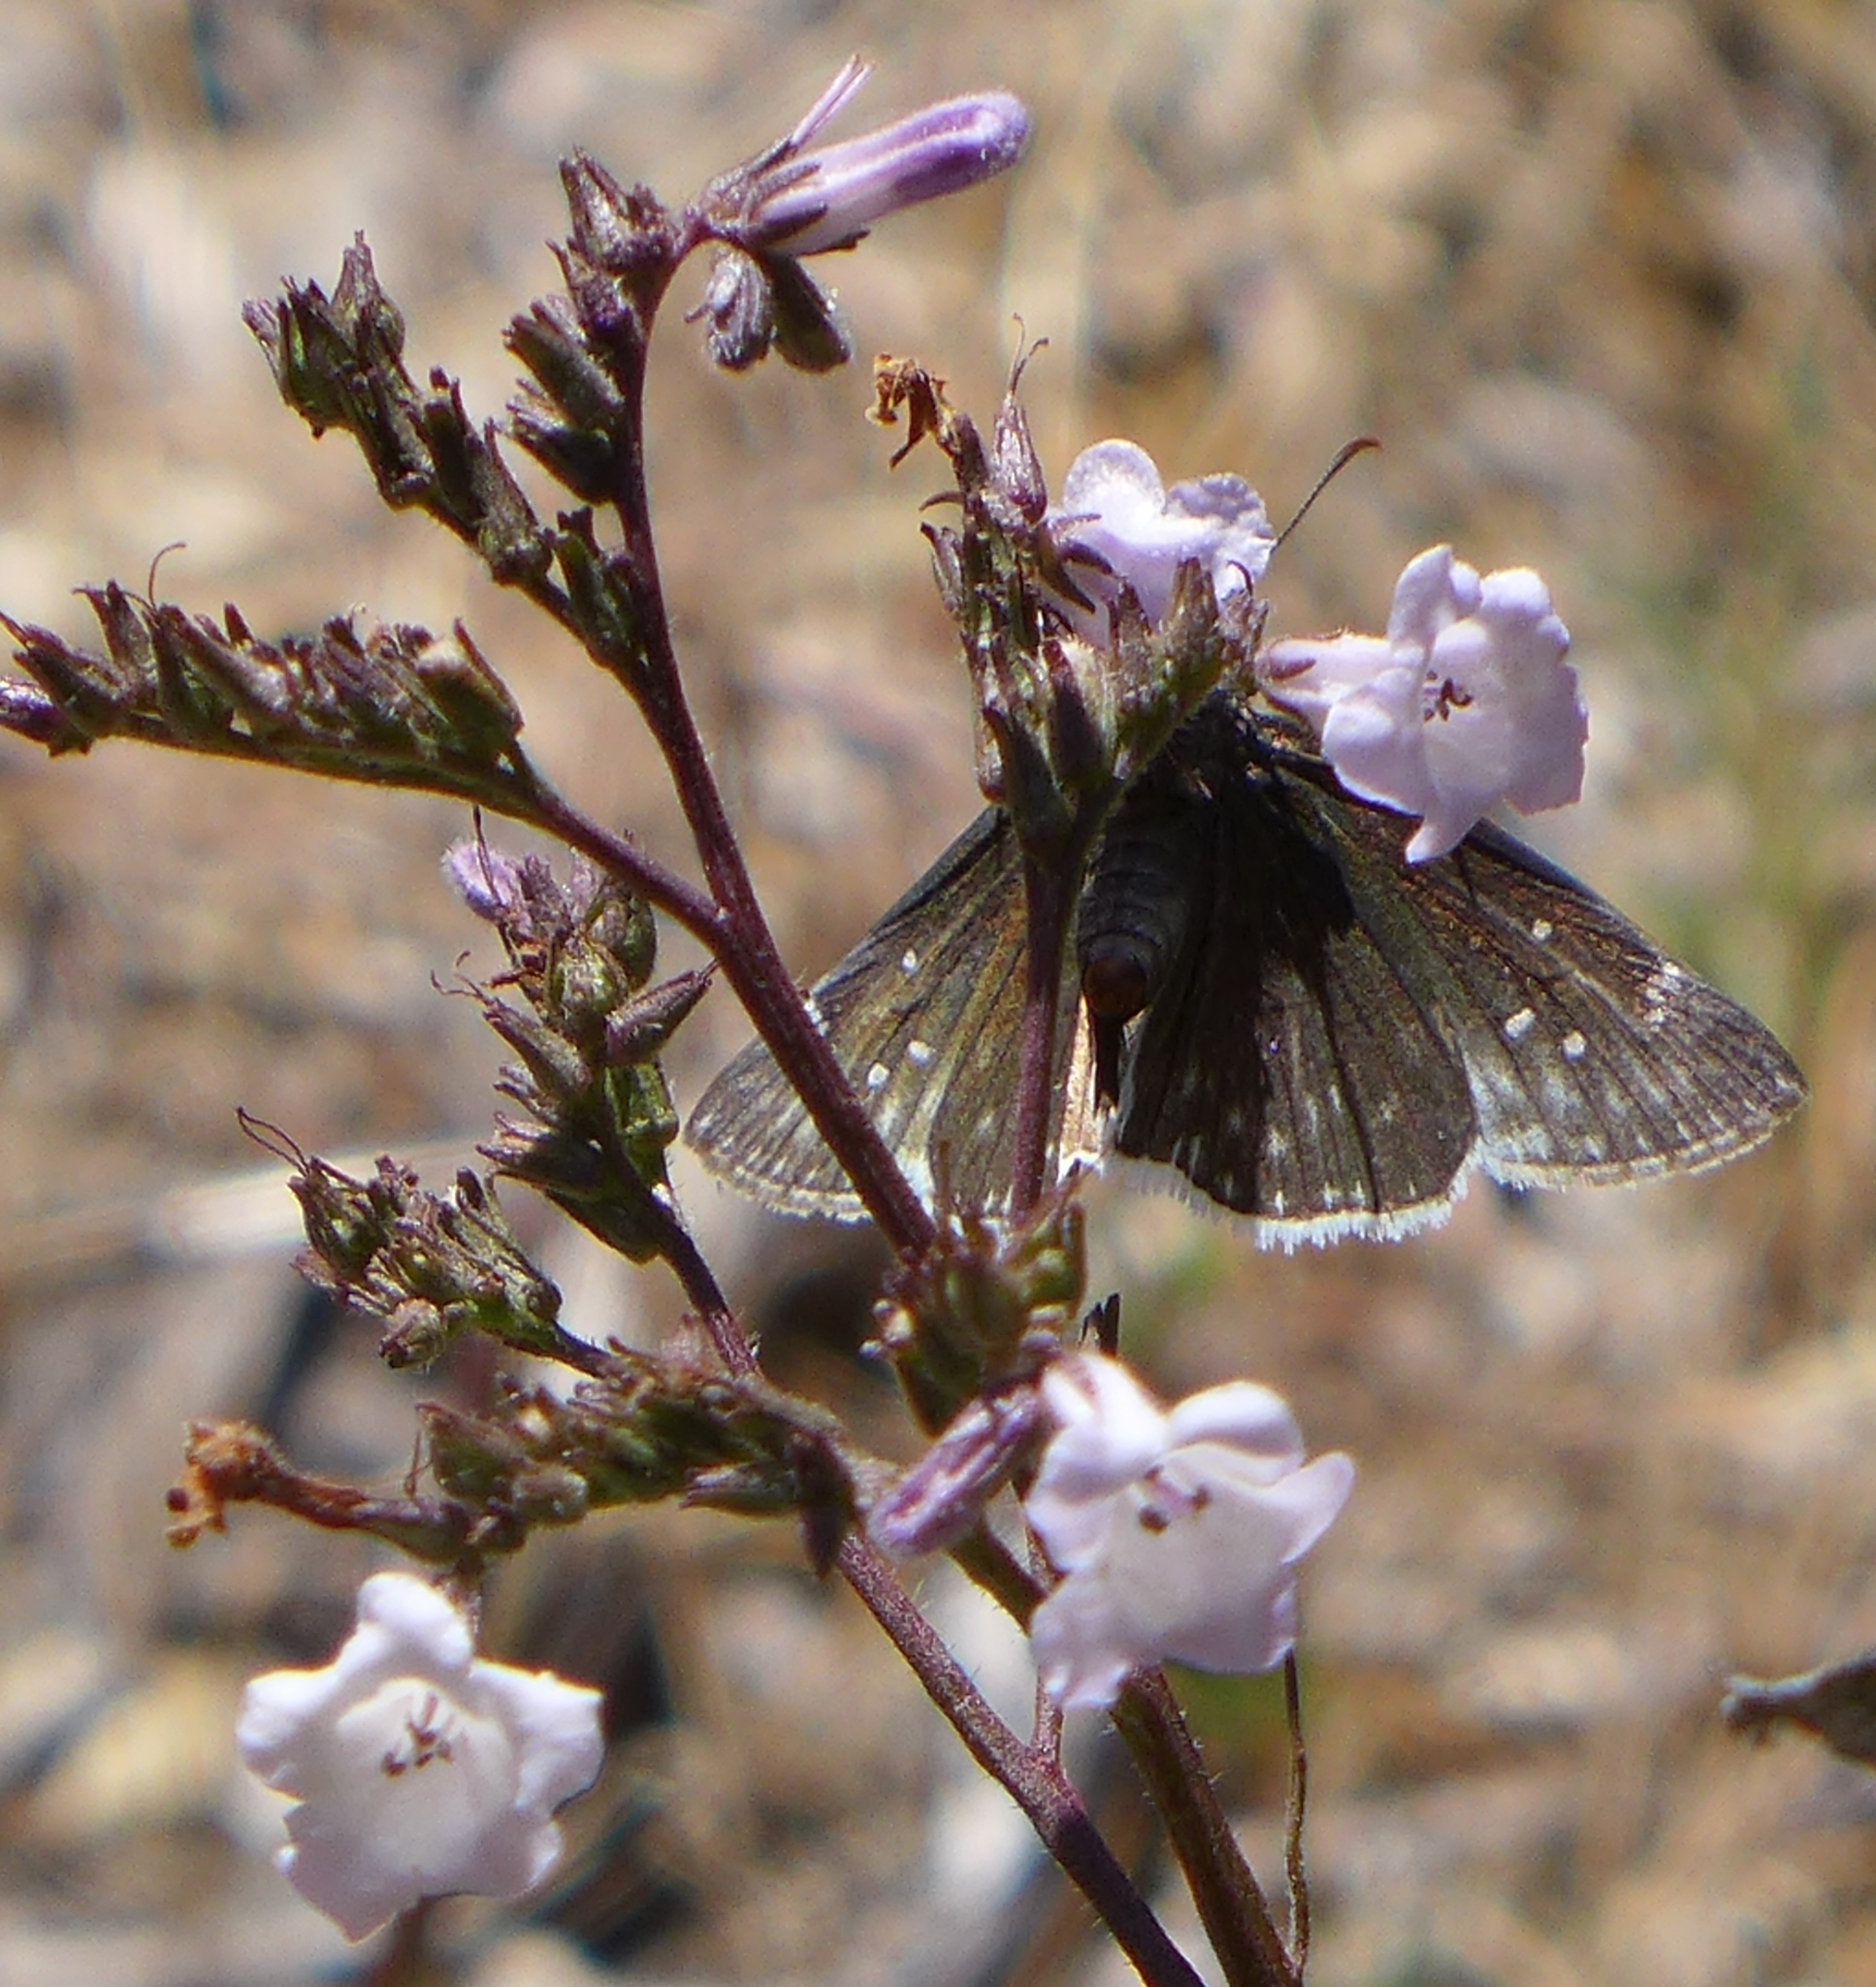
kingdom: Animalia
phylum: Arthropoda
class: Insecta
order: Lepidoptera
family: Hesperiidae
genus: Erynnis
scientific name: Erynnis funeralis
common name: Funereal duskywing
